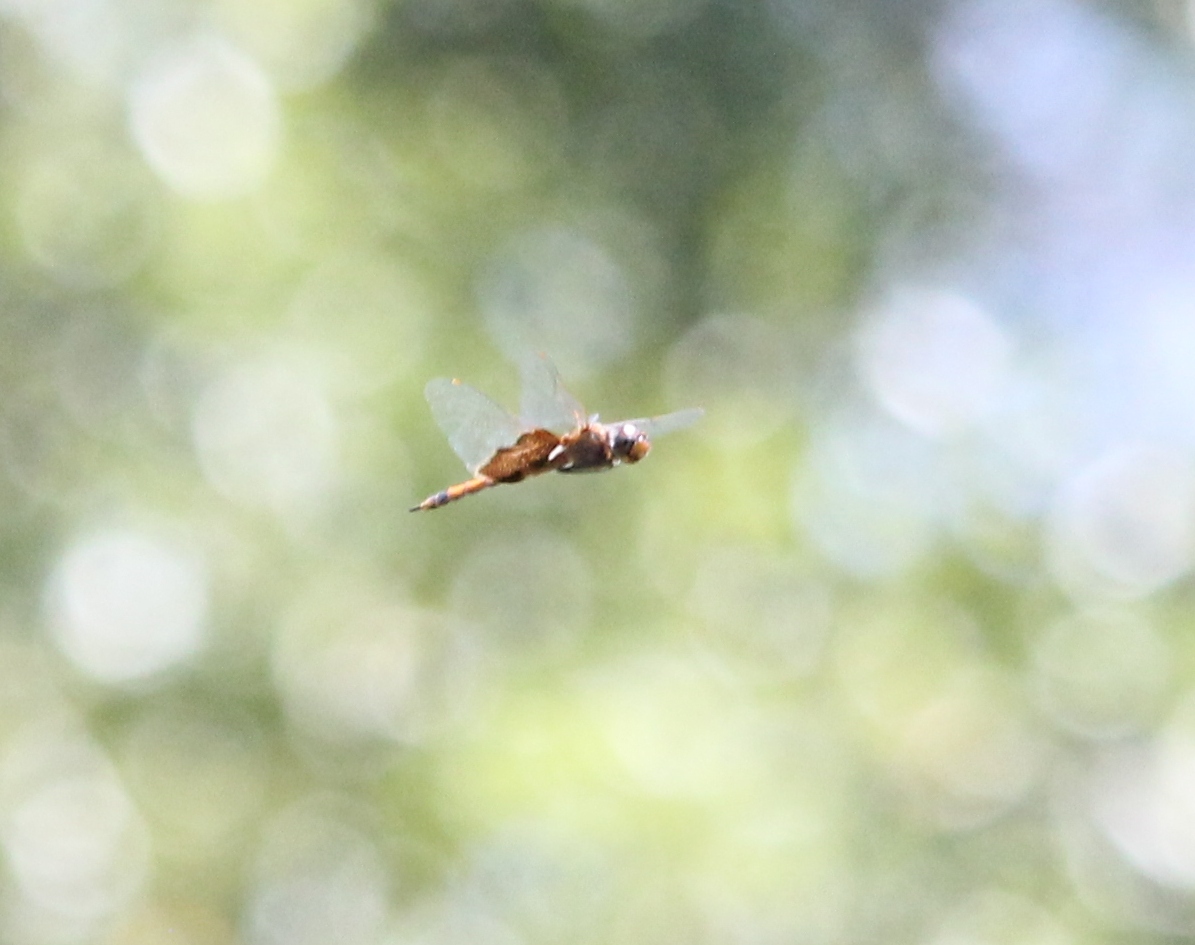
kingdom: Animalia
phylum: Arthropoda
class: Insecta
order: Odonata
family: Libellulidae
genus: Tramea
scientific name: Tramea carolina
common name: Carolina saddlebags
